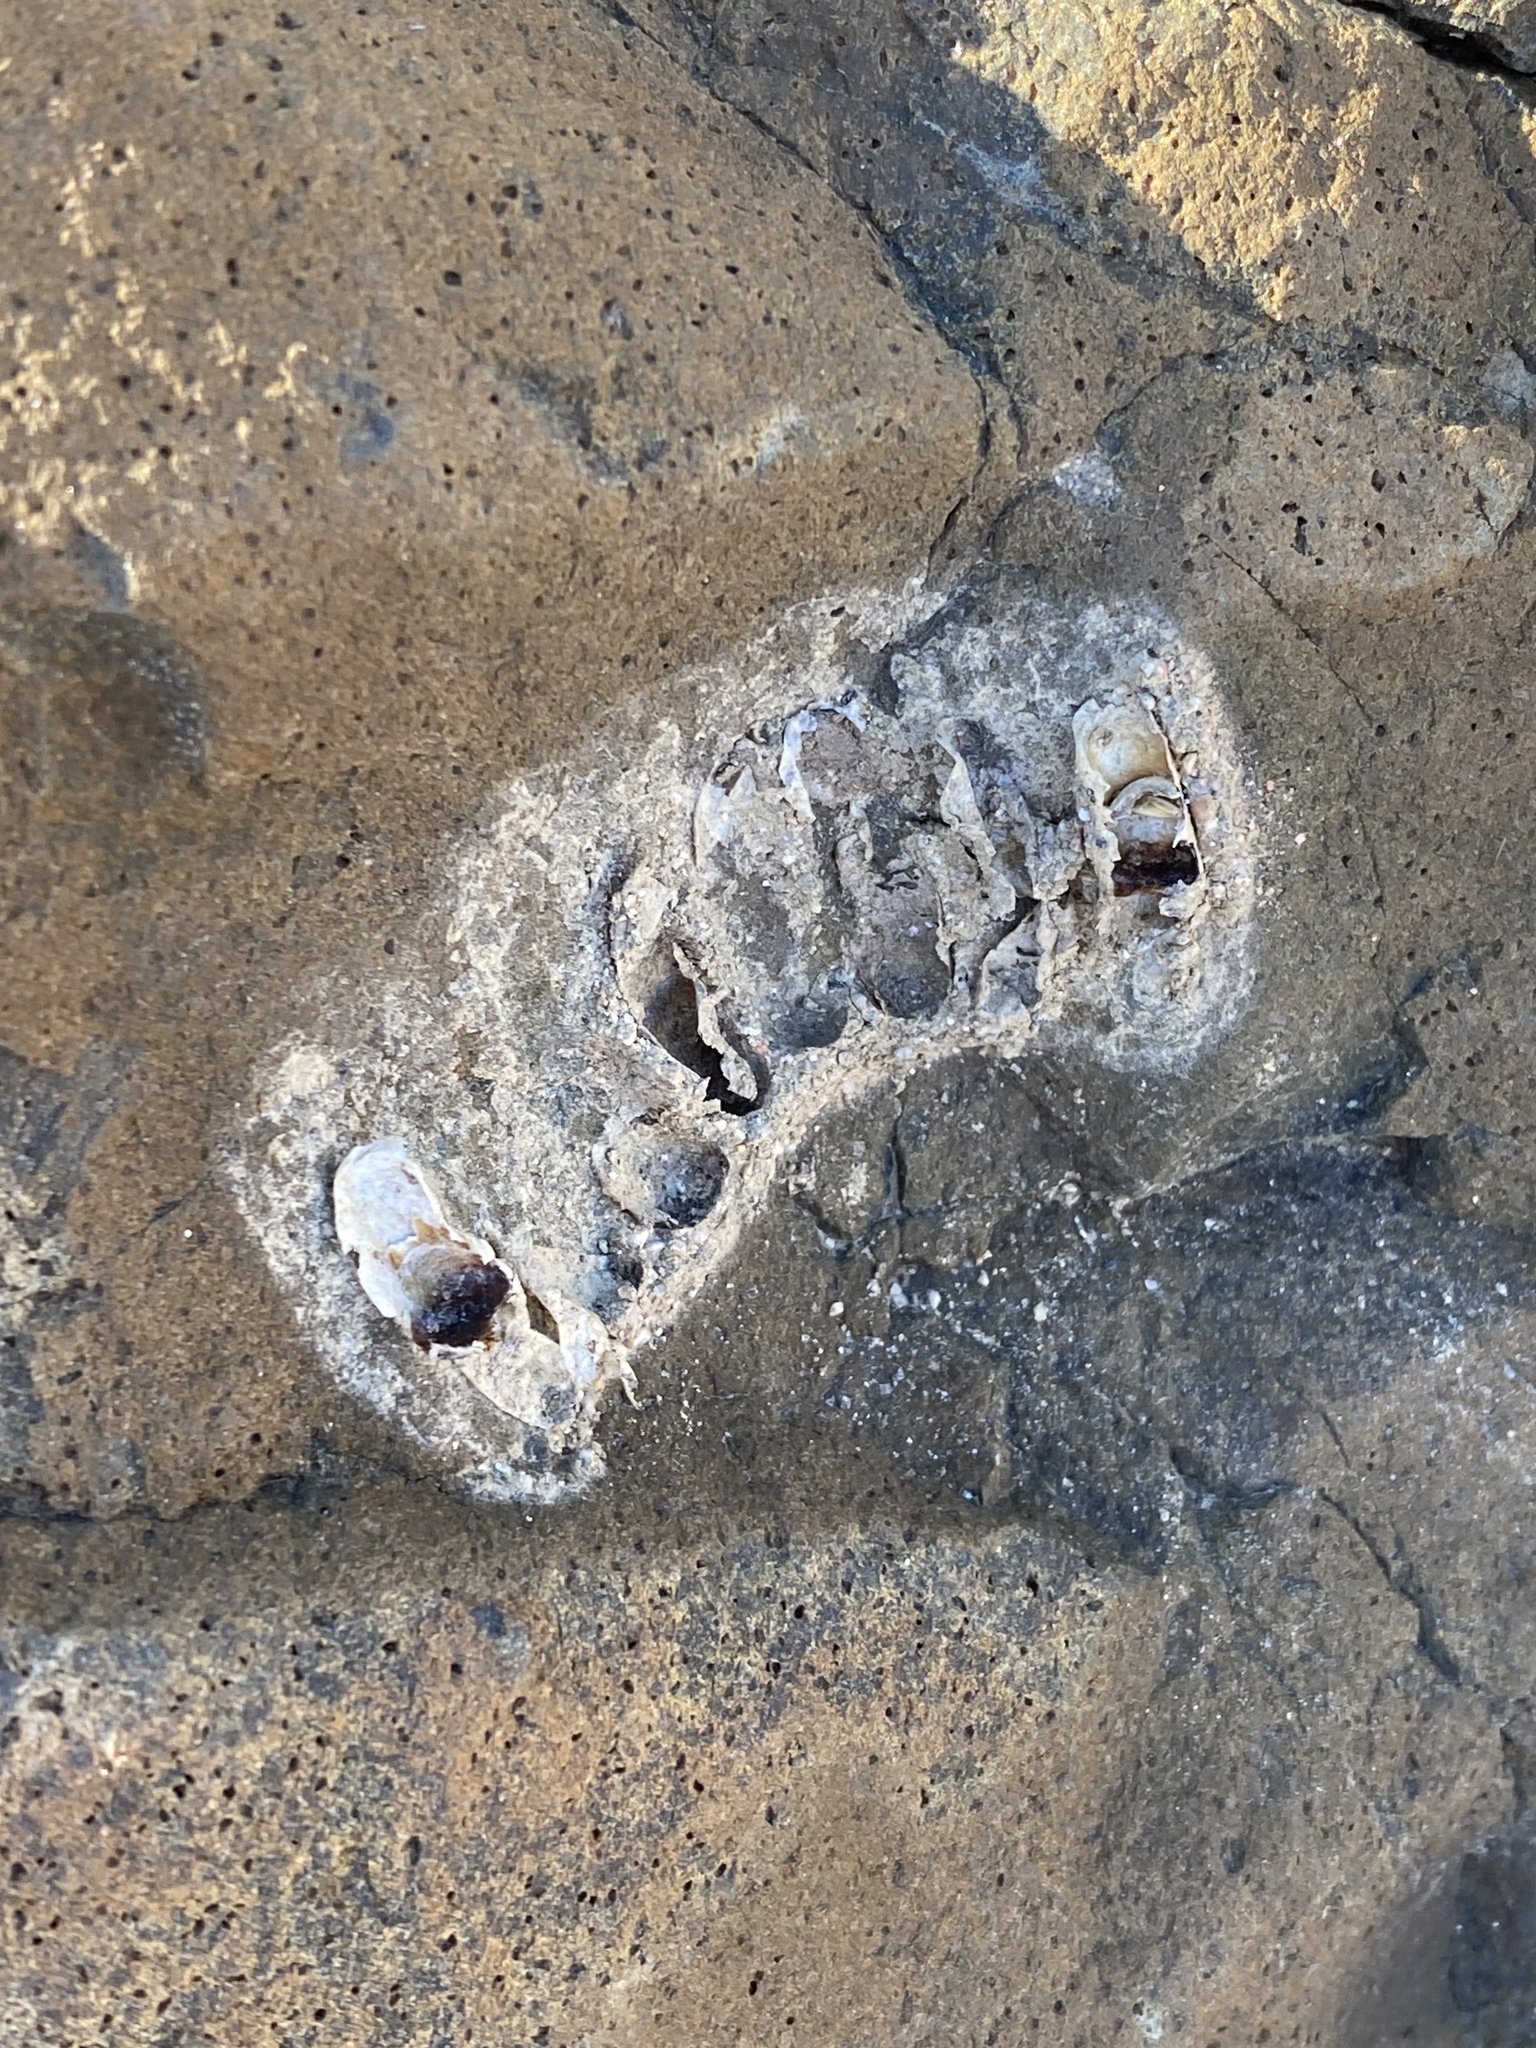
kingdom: Animalia
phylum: Arthropoda
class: Insecta
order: Hymenoptera
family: Masaridae
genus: Pseudomasaris
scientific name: Pseudomasaris
